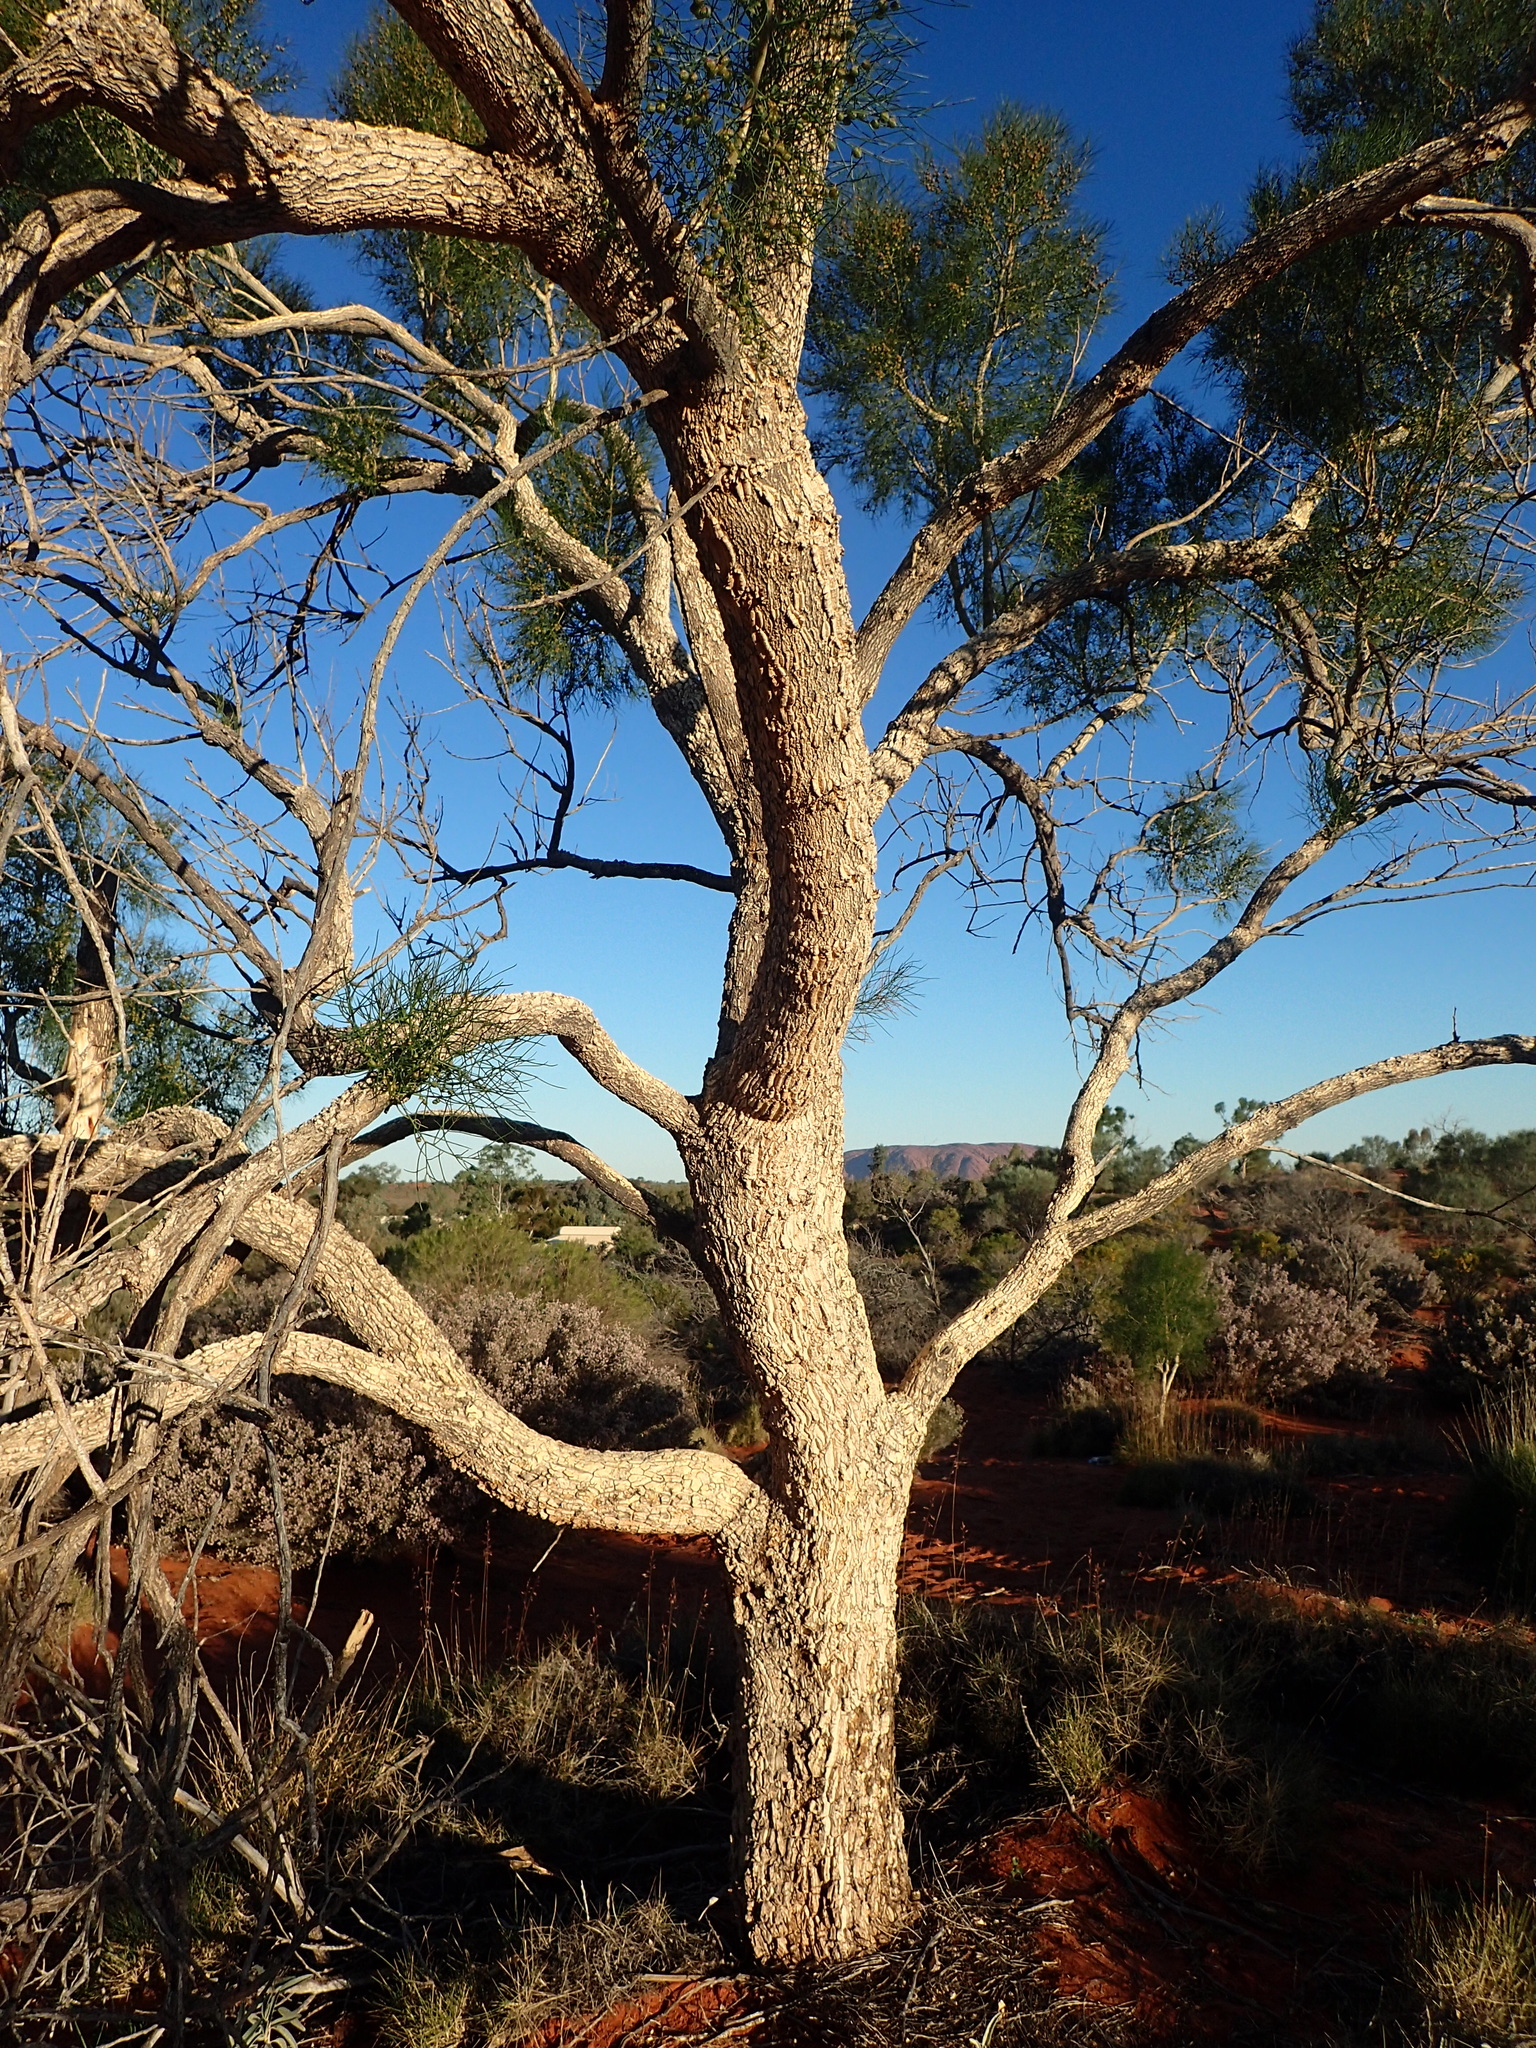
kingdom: Plantae
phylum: Tracheophyta
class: Magnoliopsida
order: Brassicales
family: Gyrostemonaceae
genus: Gyrostemon
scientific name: Gyrostemon ramulosus
